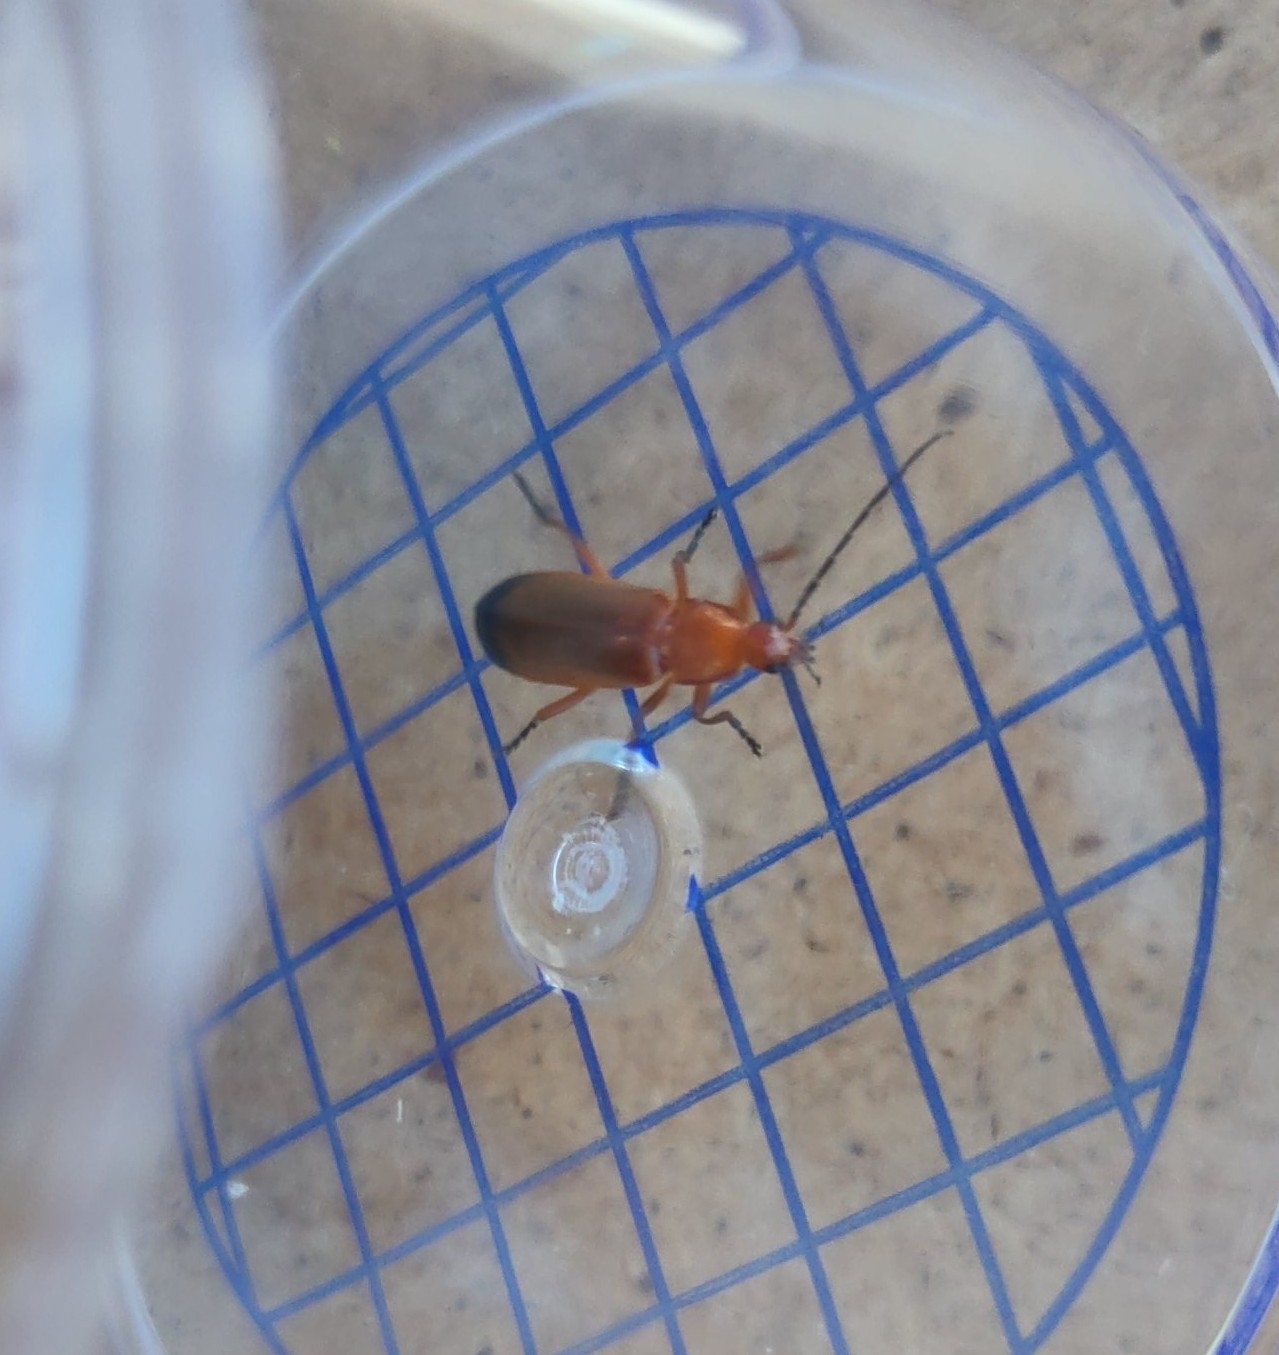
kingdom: Animalia
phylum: Arthropoda
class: Insecta
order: Coleoptera
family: Cantharidae
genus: Rhagonycha
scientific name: Rhagonycha fulva
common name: Common red soldier beetle
